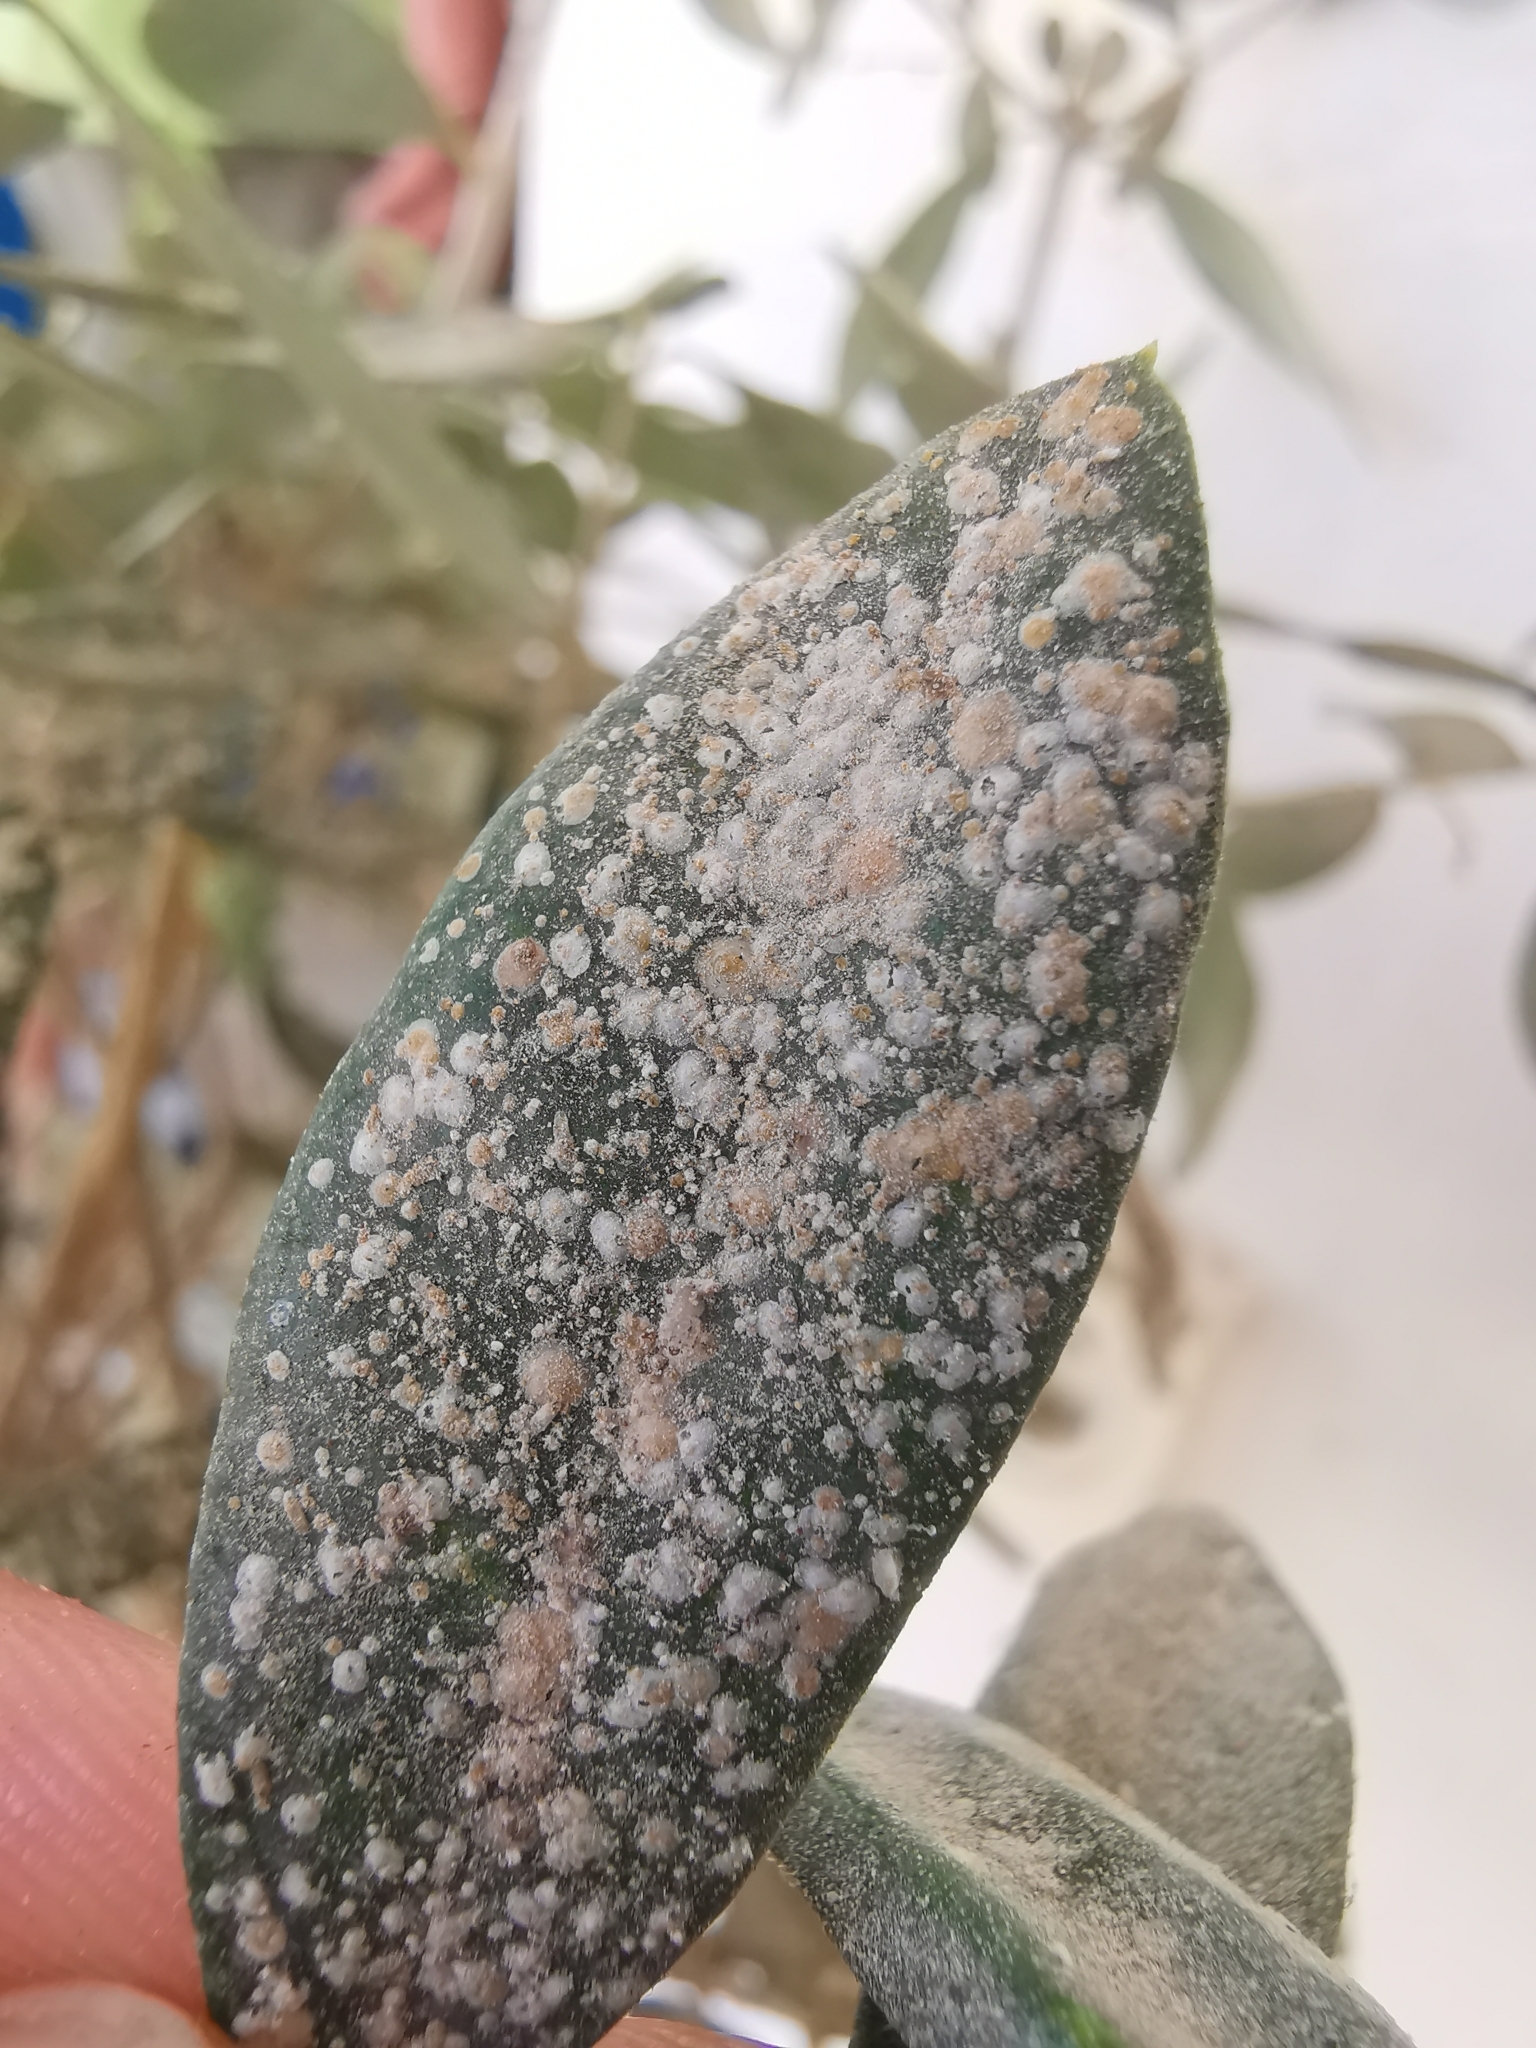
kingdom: Animalia
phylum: Arthropoda
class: Insecta
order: Hemiptera
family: Diaspididae
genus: Aspidiotus
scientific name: Aspidiotus nerii
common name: Oleander scale
